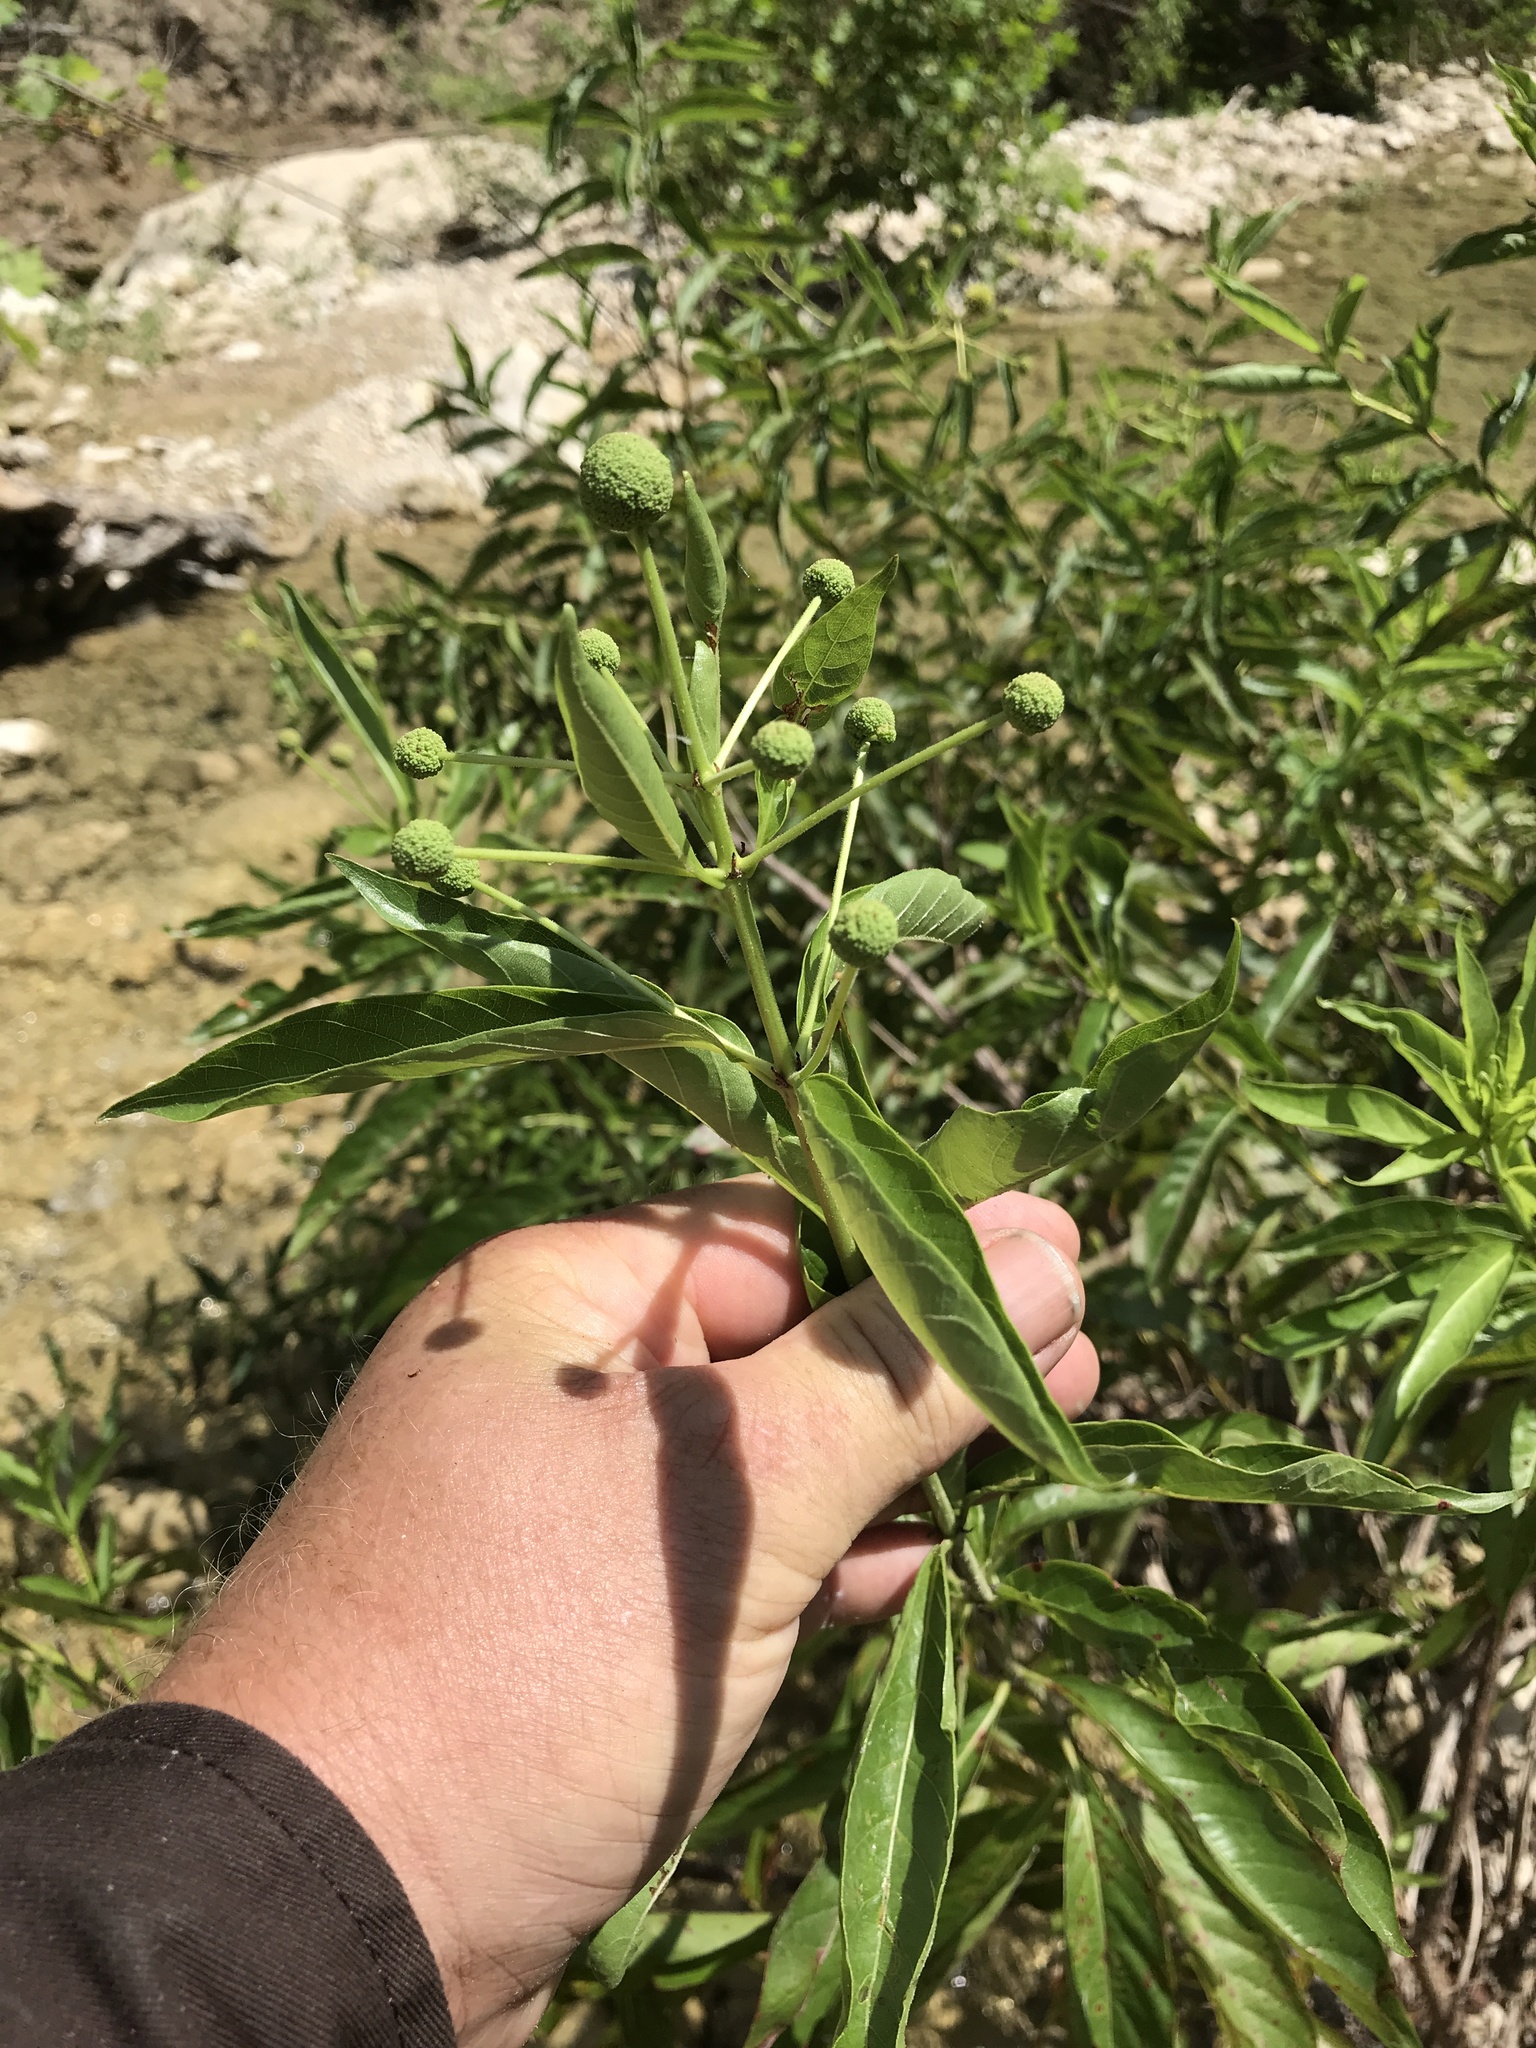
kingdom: Plantae
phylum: Tracheophyta
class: Magnoliopsida
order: Gentianales
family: Rubiaceae
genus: Cephalanthus
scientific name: Cephalanthus occidentalis
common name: Button-willow
